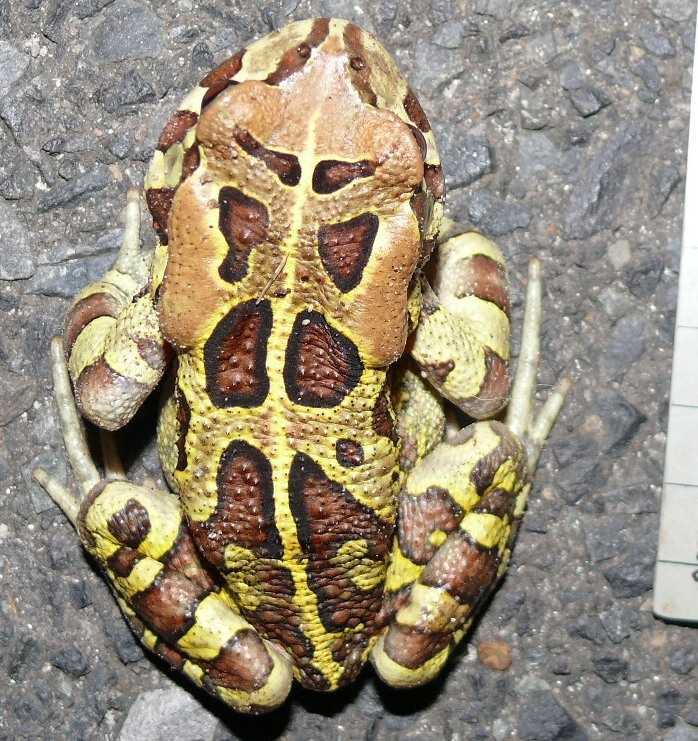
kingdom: Animalia
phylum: Chordata
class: Amphibia
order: Anura
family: Bufonidae
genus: Sclerophrys
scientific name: Sclerophrys pantherina
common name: Panther toad
